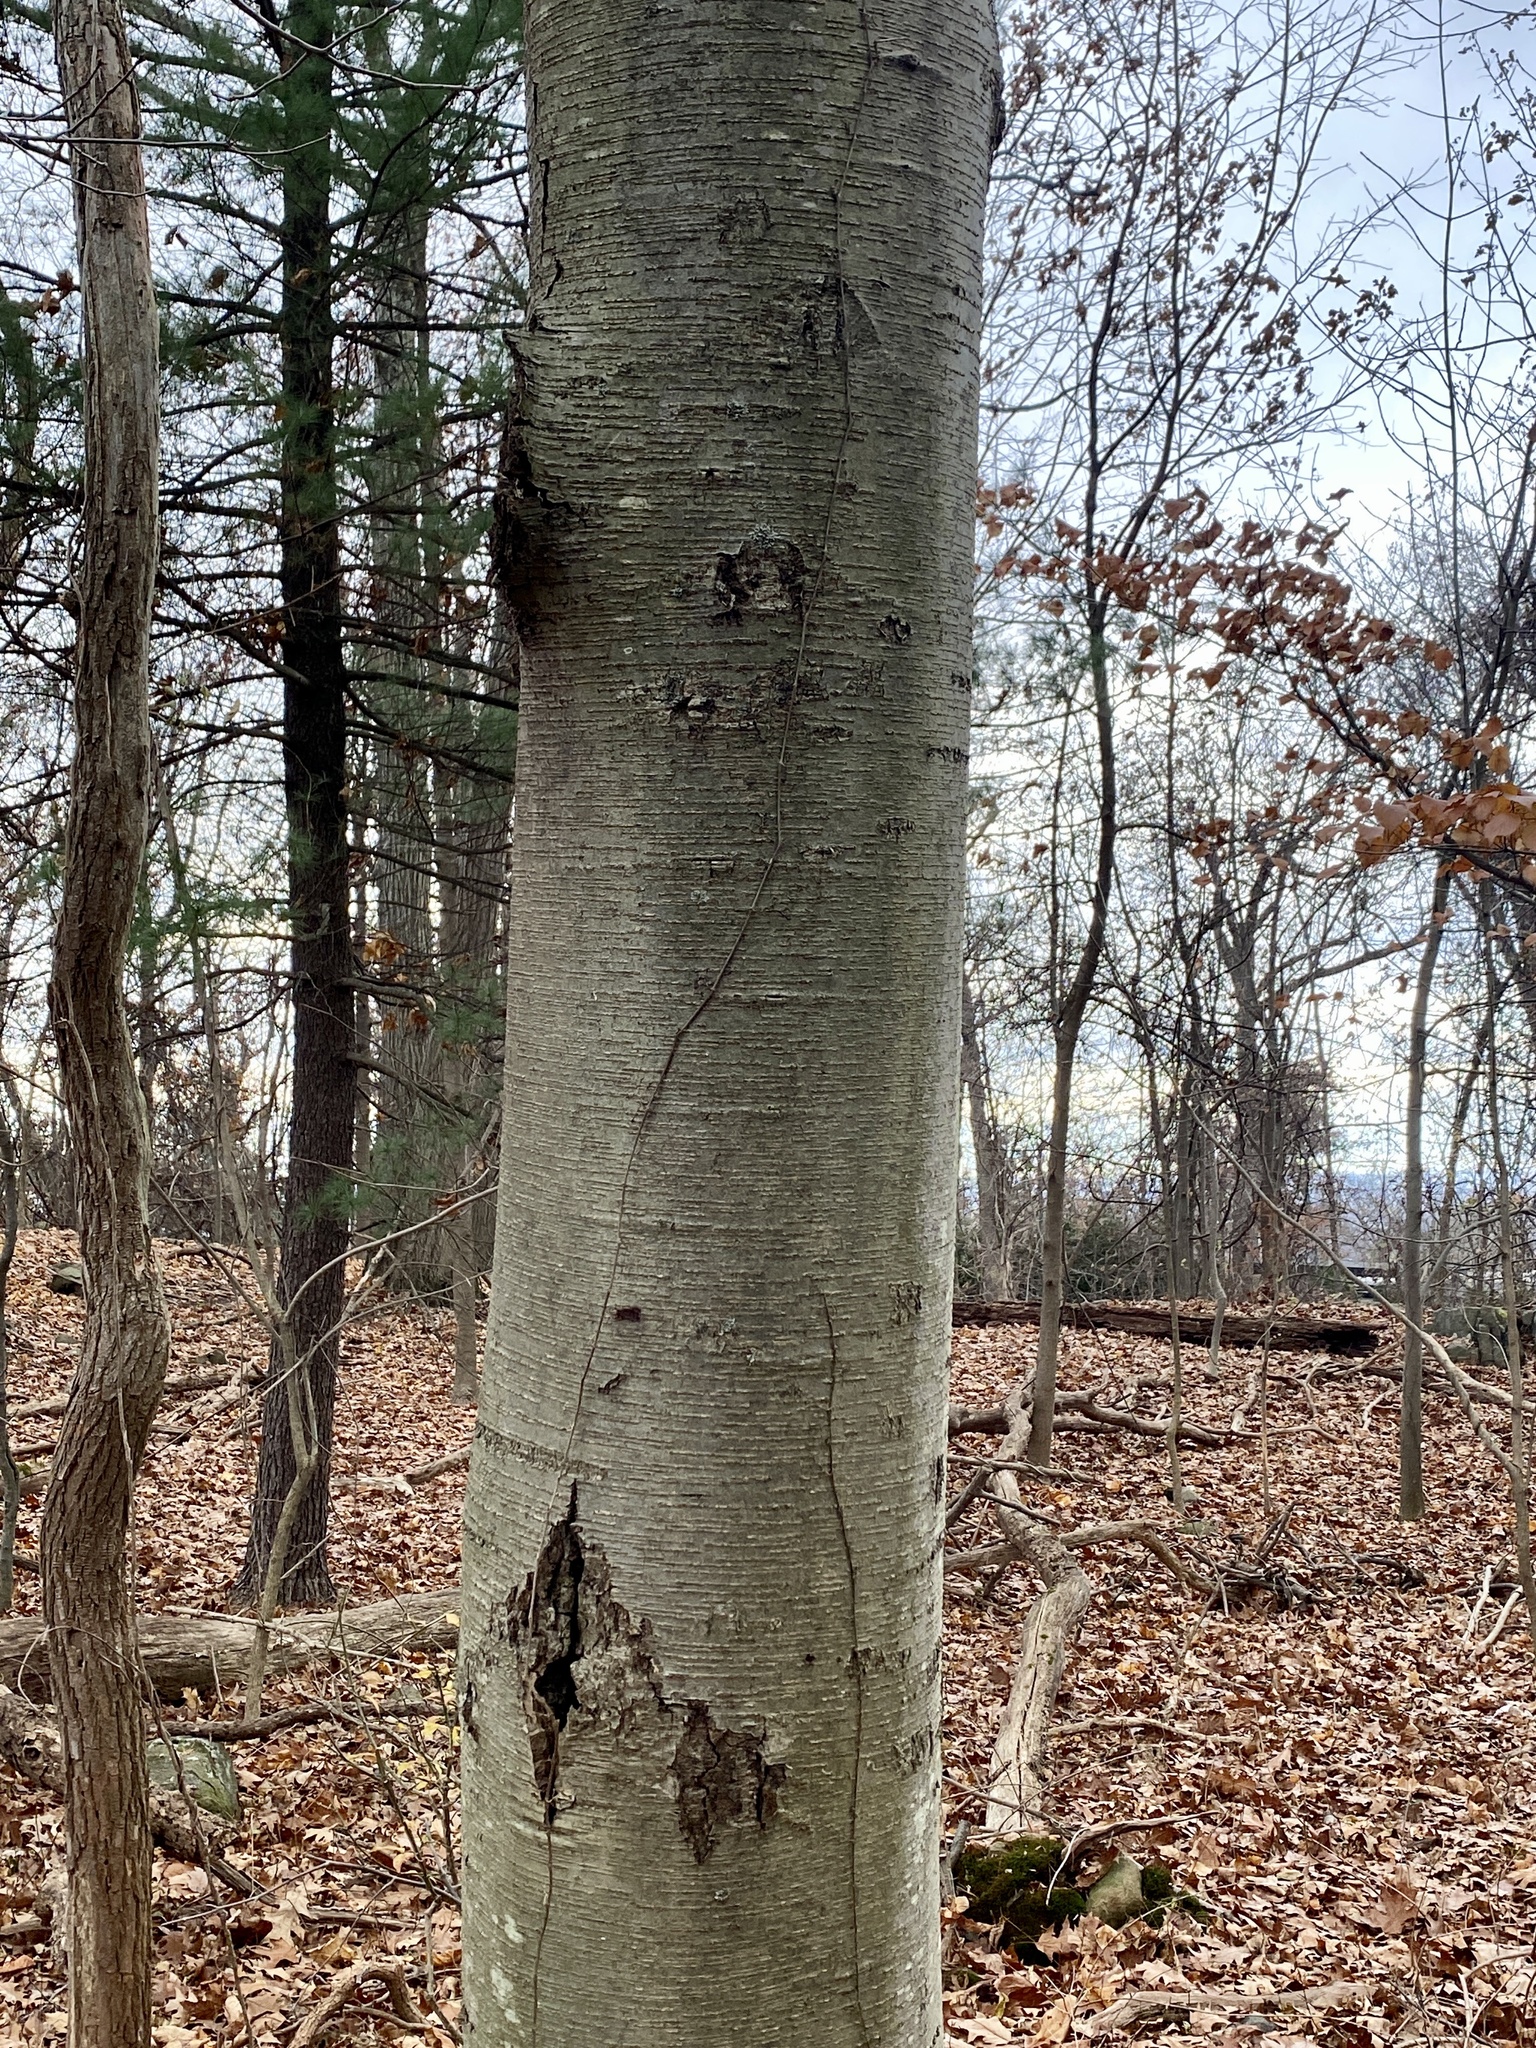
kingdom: Plantae
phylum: Tracheophyta
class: Magnoliopsida
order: Fagales
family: Betulaceae
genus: Betula
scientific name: Betula lenta
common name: Black birch
